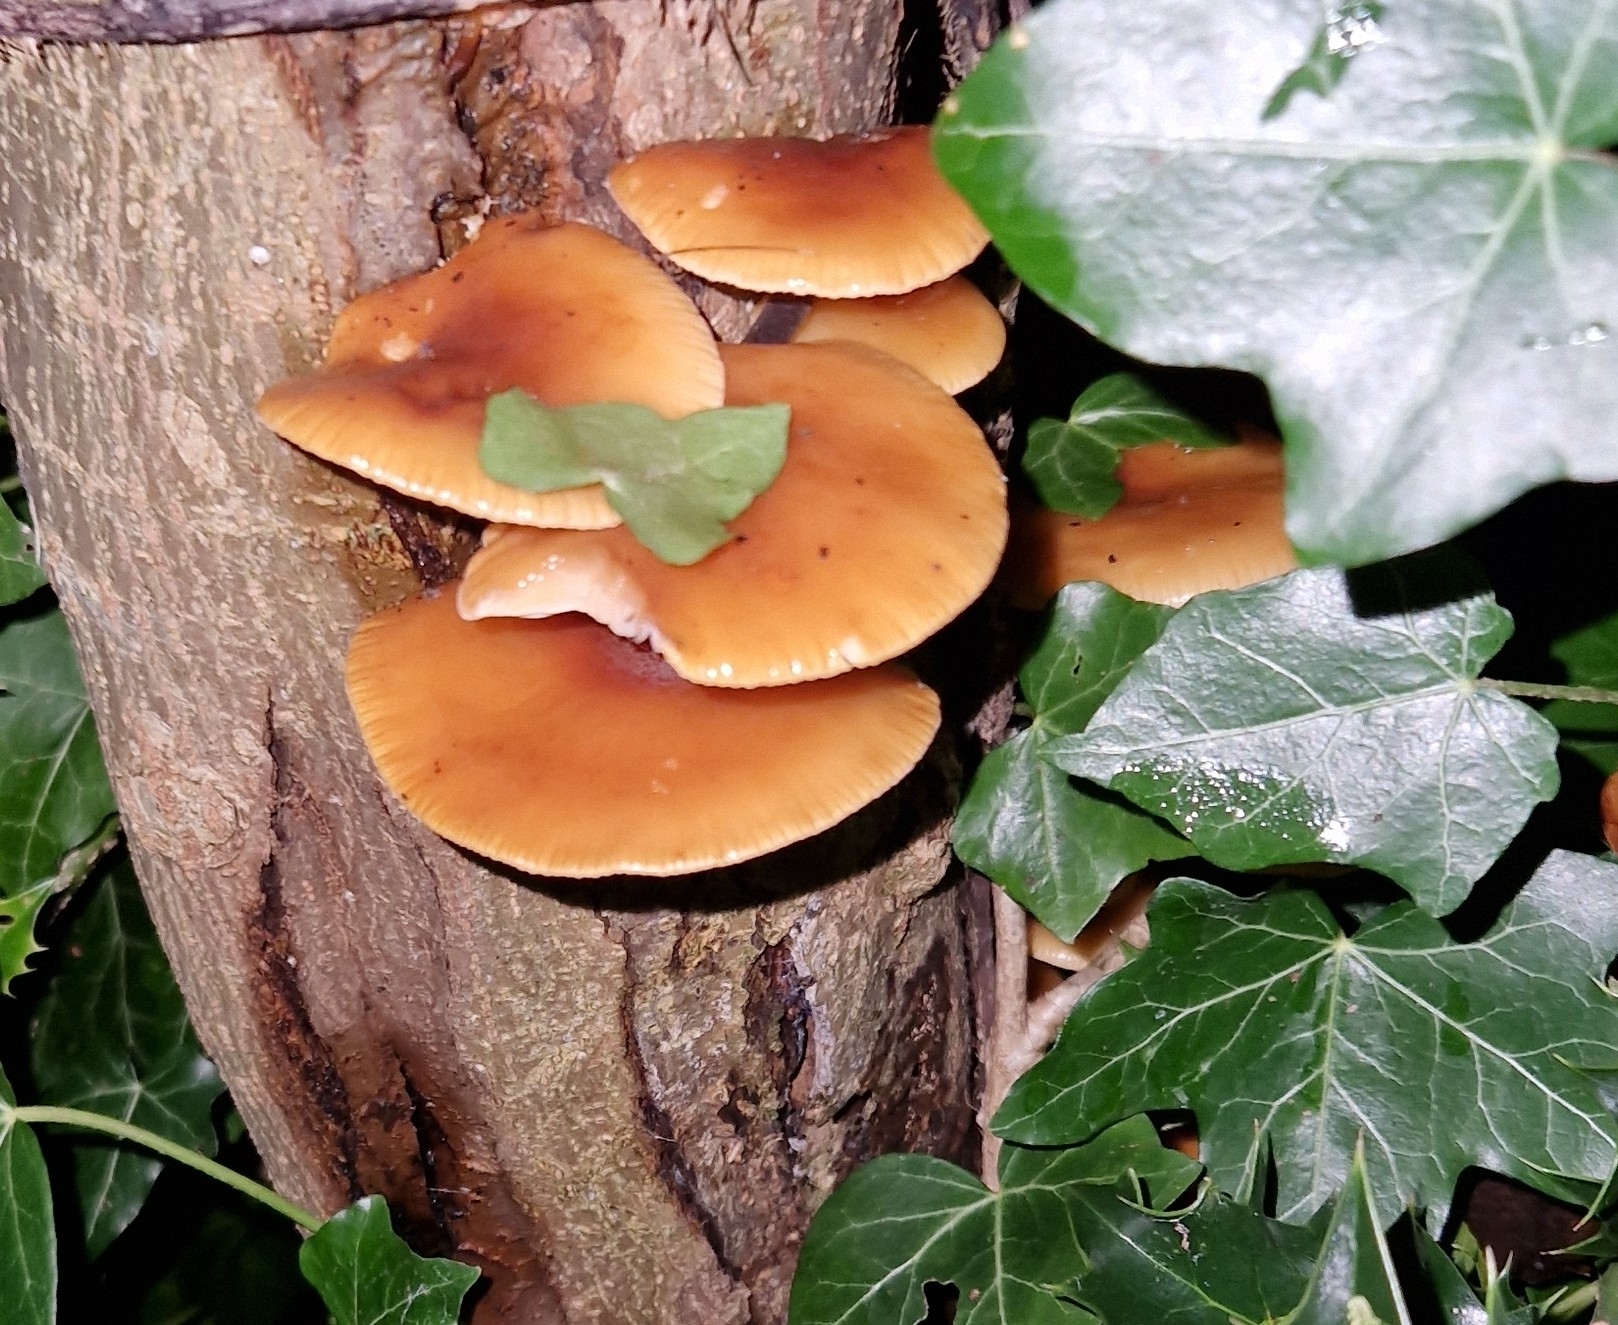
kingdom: Fungi
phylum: Basidiomycota
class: Agaricomycetes
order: Agaricales
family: Physalacriaceae
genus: Flammulina
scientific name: Flammulina
